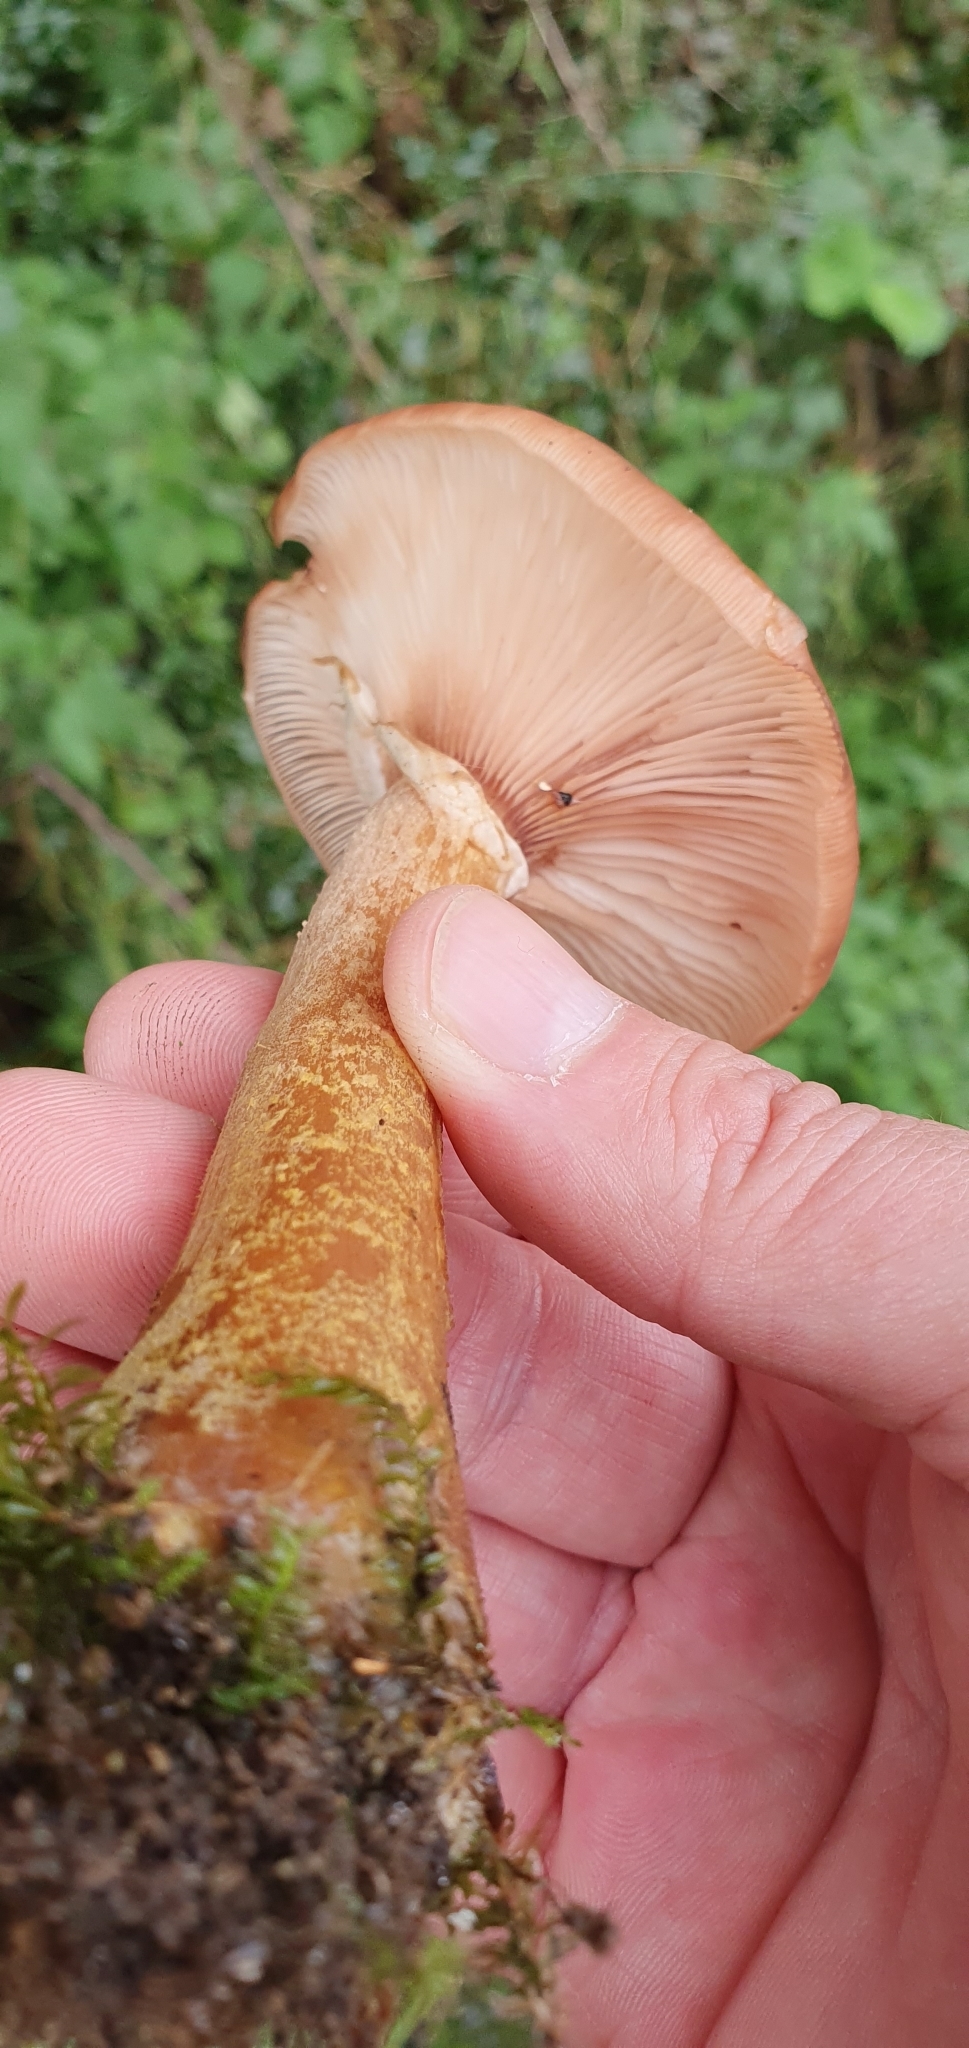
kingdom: Fungi
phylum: Basidiomycota
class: Agaricomycetes
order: Agaricales
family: Physalacriaceae
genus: Armillaria
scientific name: Armillaria gallica
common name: Bulbous honey fungus
